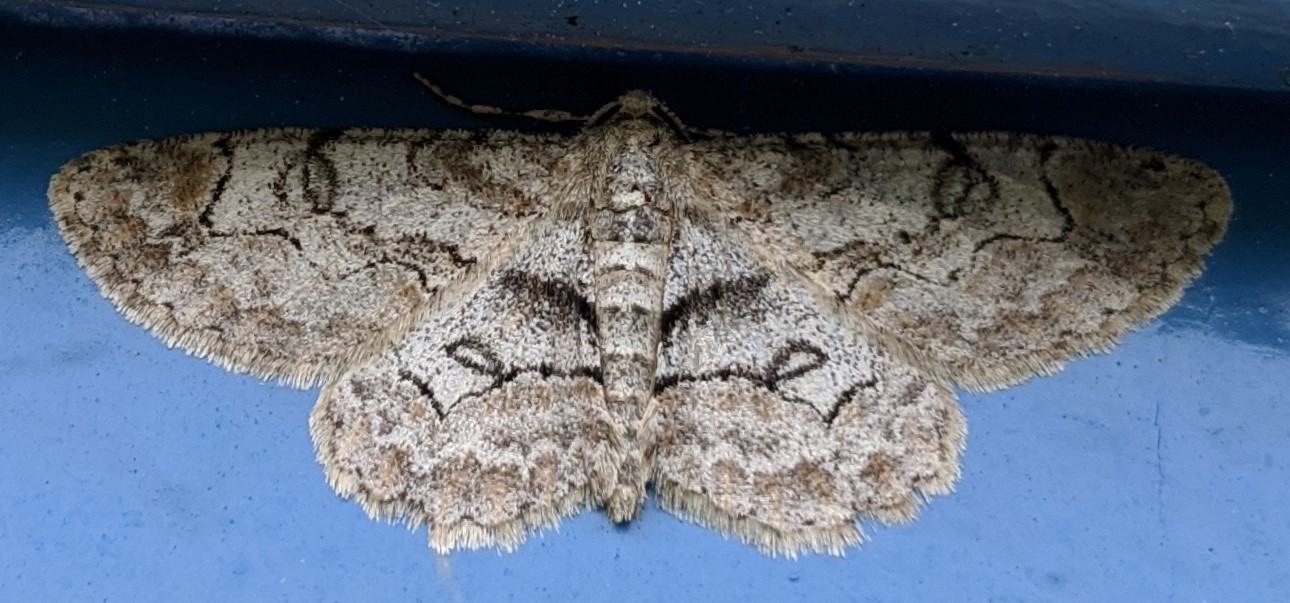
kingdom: Animalia
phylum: Arthropoda
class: Insecta
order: Lepidoptera
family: Geometridae
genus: Iridopsis
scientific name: Iridopsis larvaria
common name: Bent-line gray
